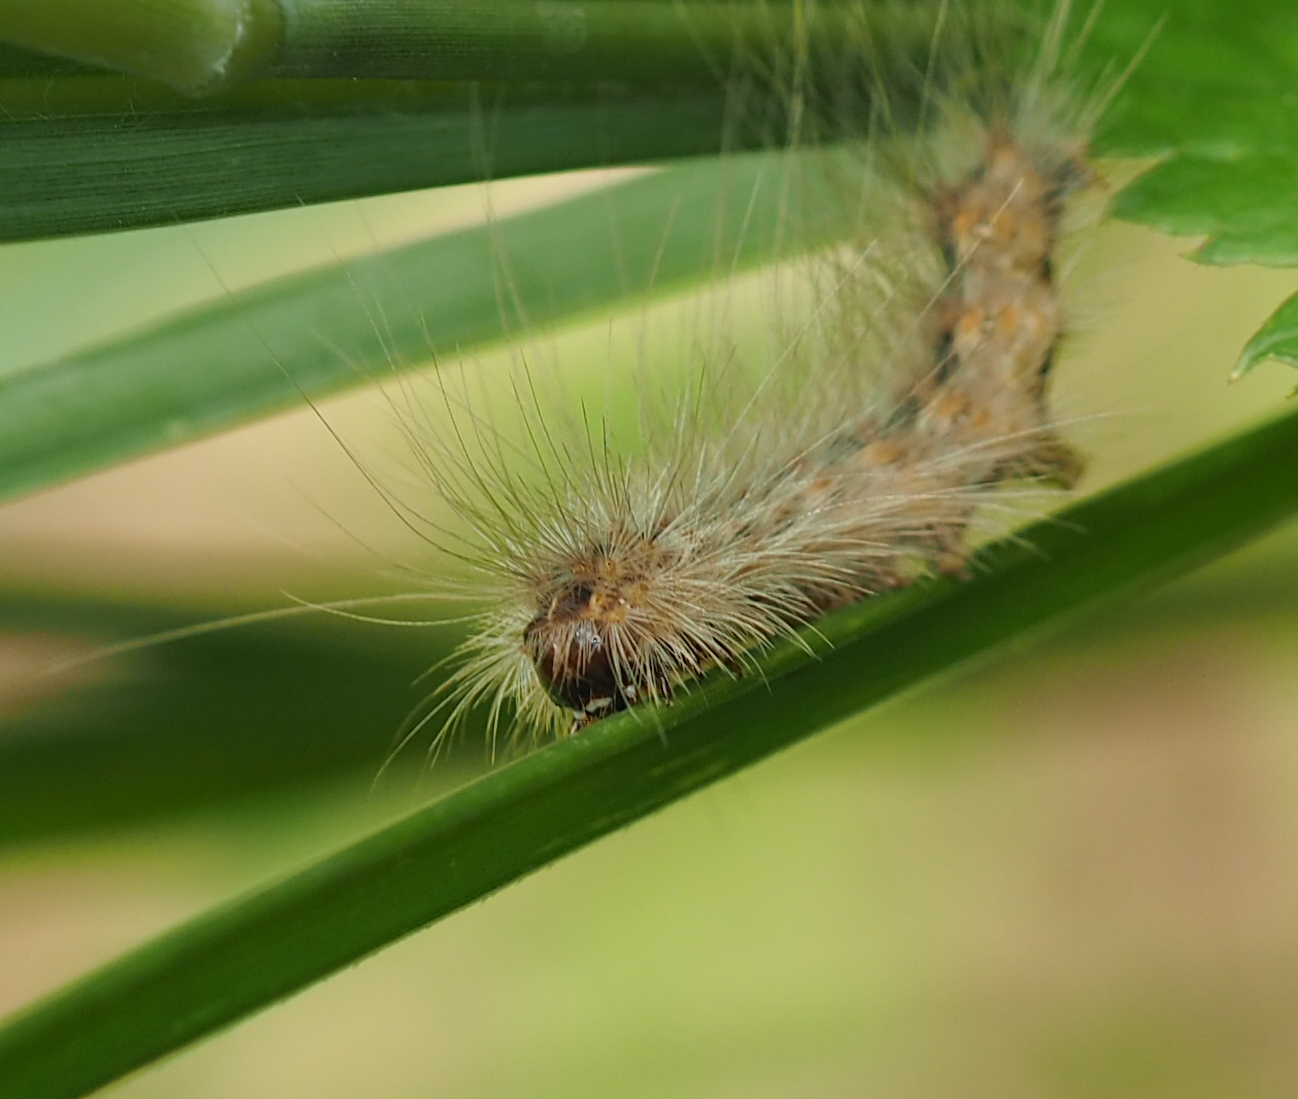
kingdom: Animalia
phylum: Arthropoda
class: Insecta
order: Lepidoptera
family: Erebidae
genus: Hyphantria
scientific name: Hyphantria cunea
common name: American white moth
